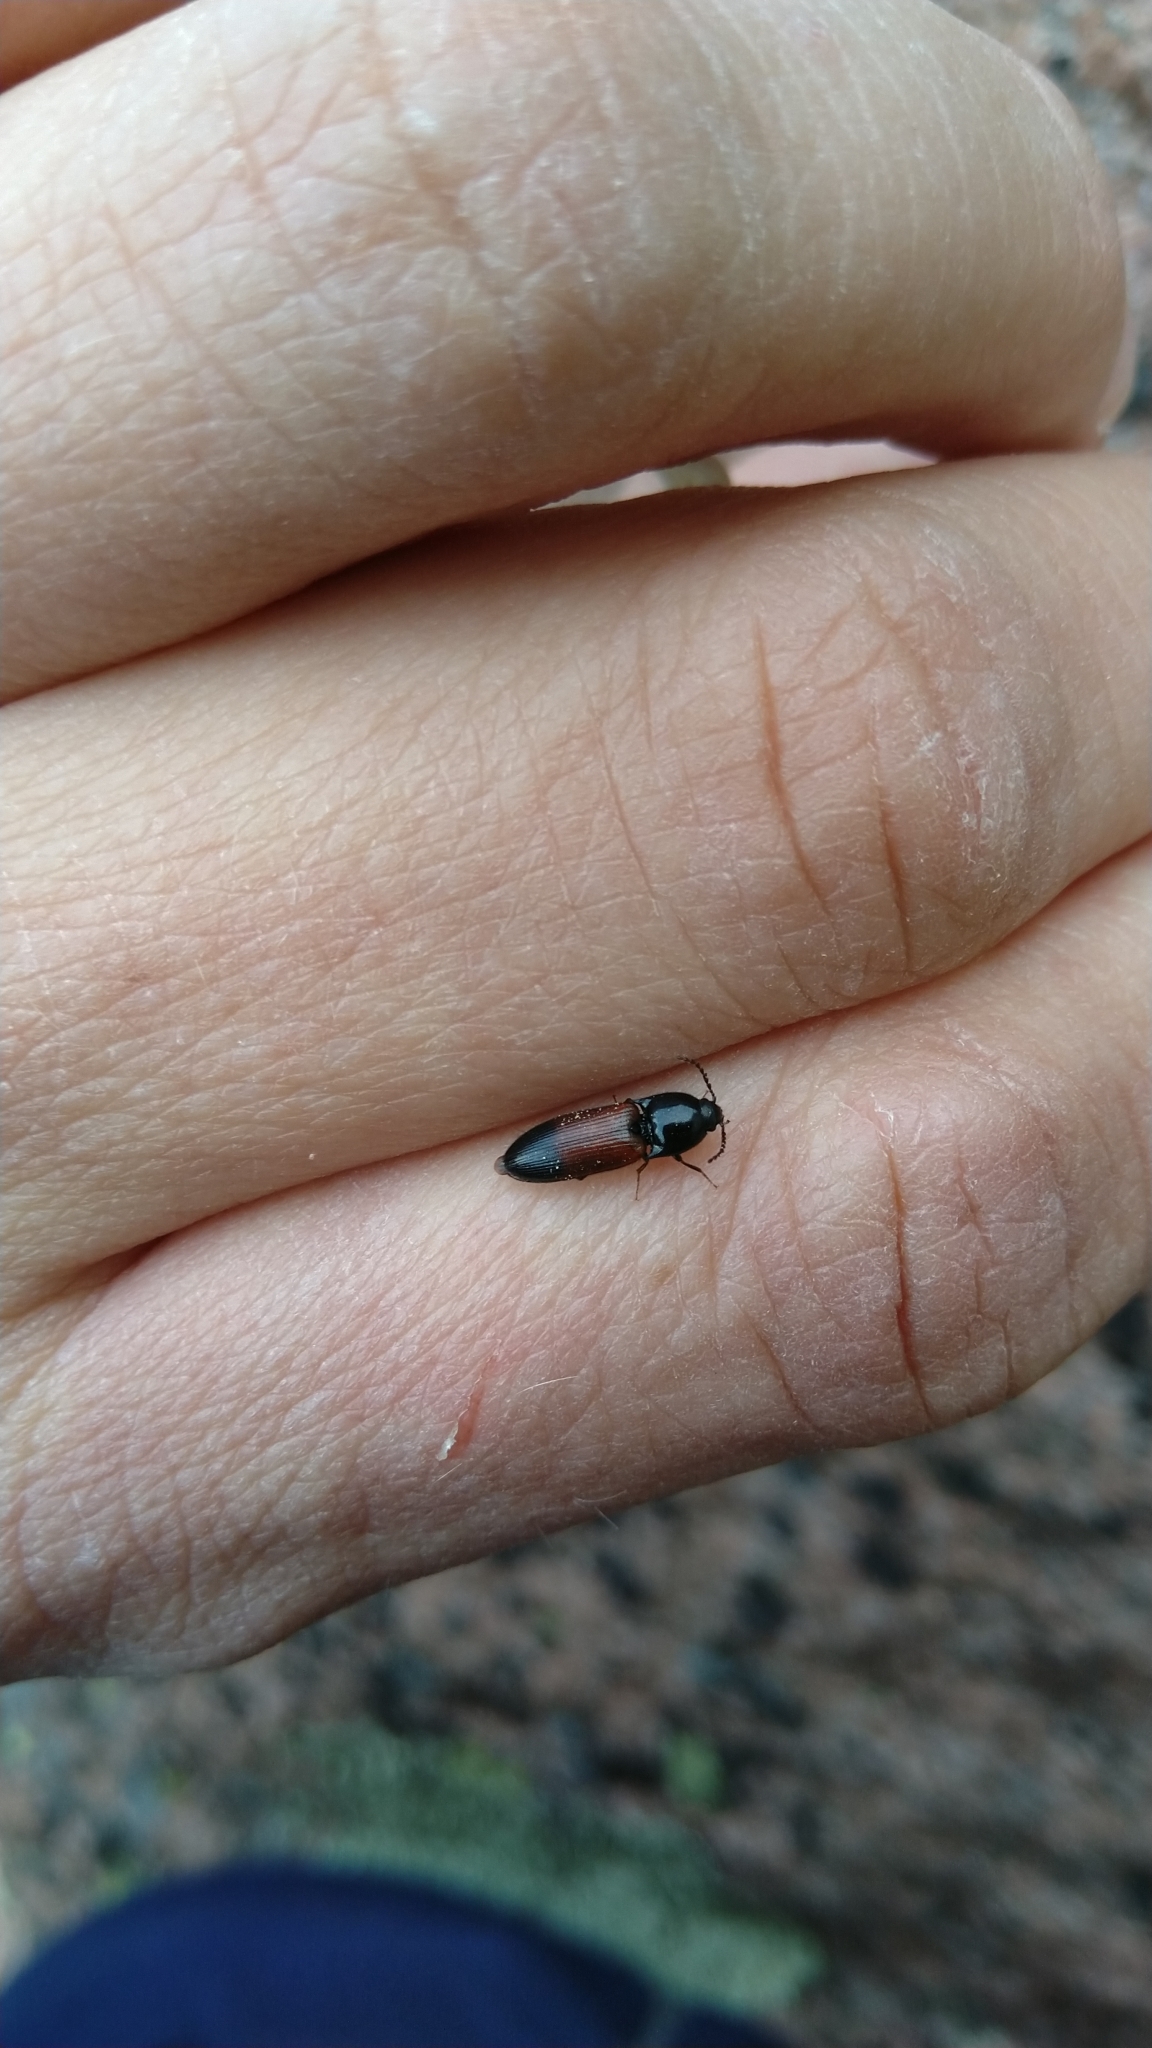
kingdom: Animalia
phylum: Arthropoda
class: Insecta
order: Coleoptera
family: Elateridae
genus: Ampedus
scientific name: Ampedus balteatus
